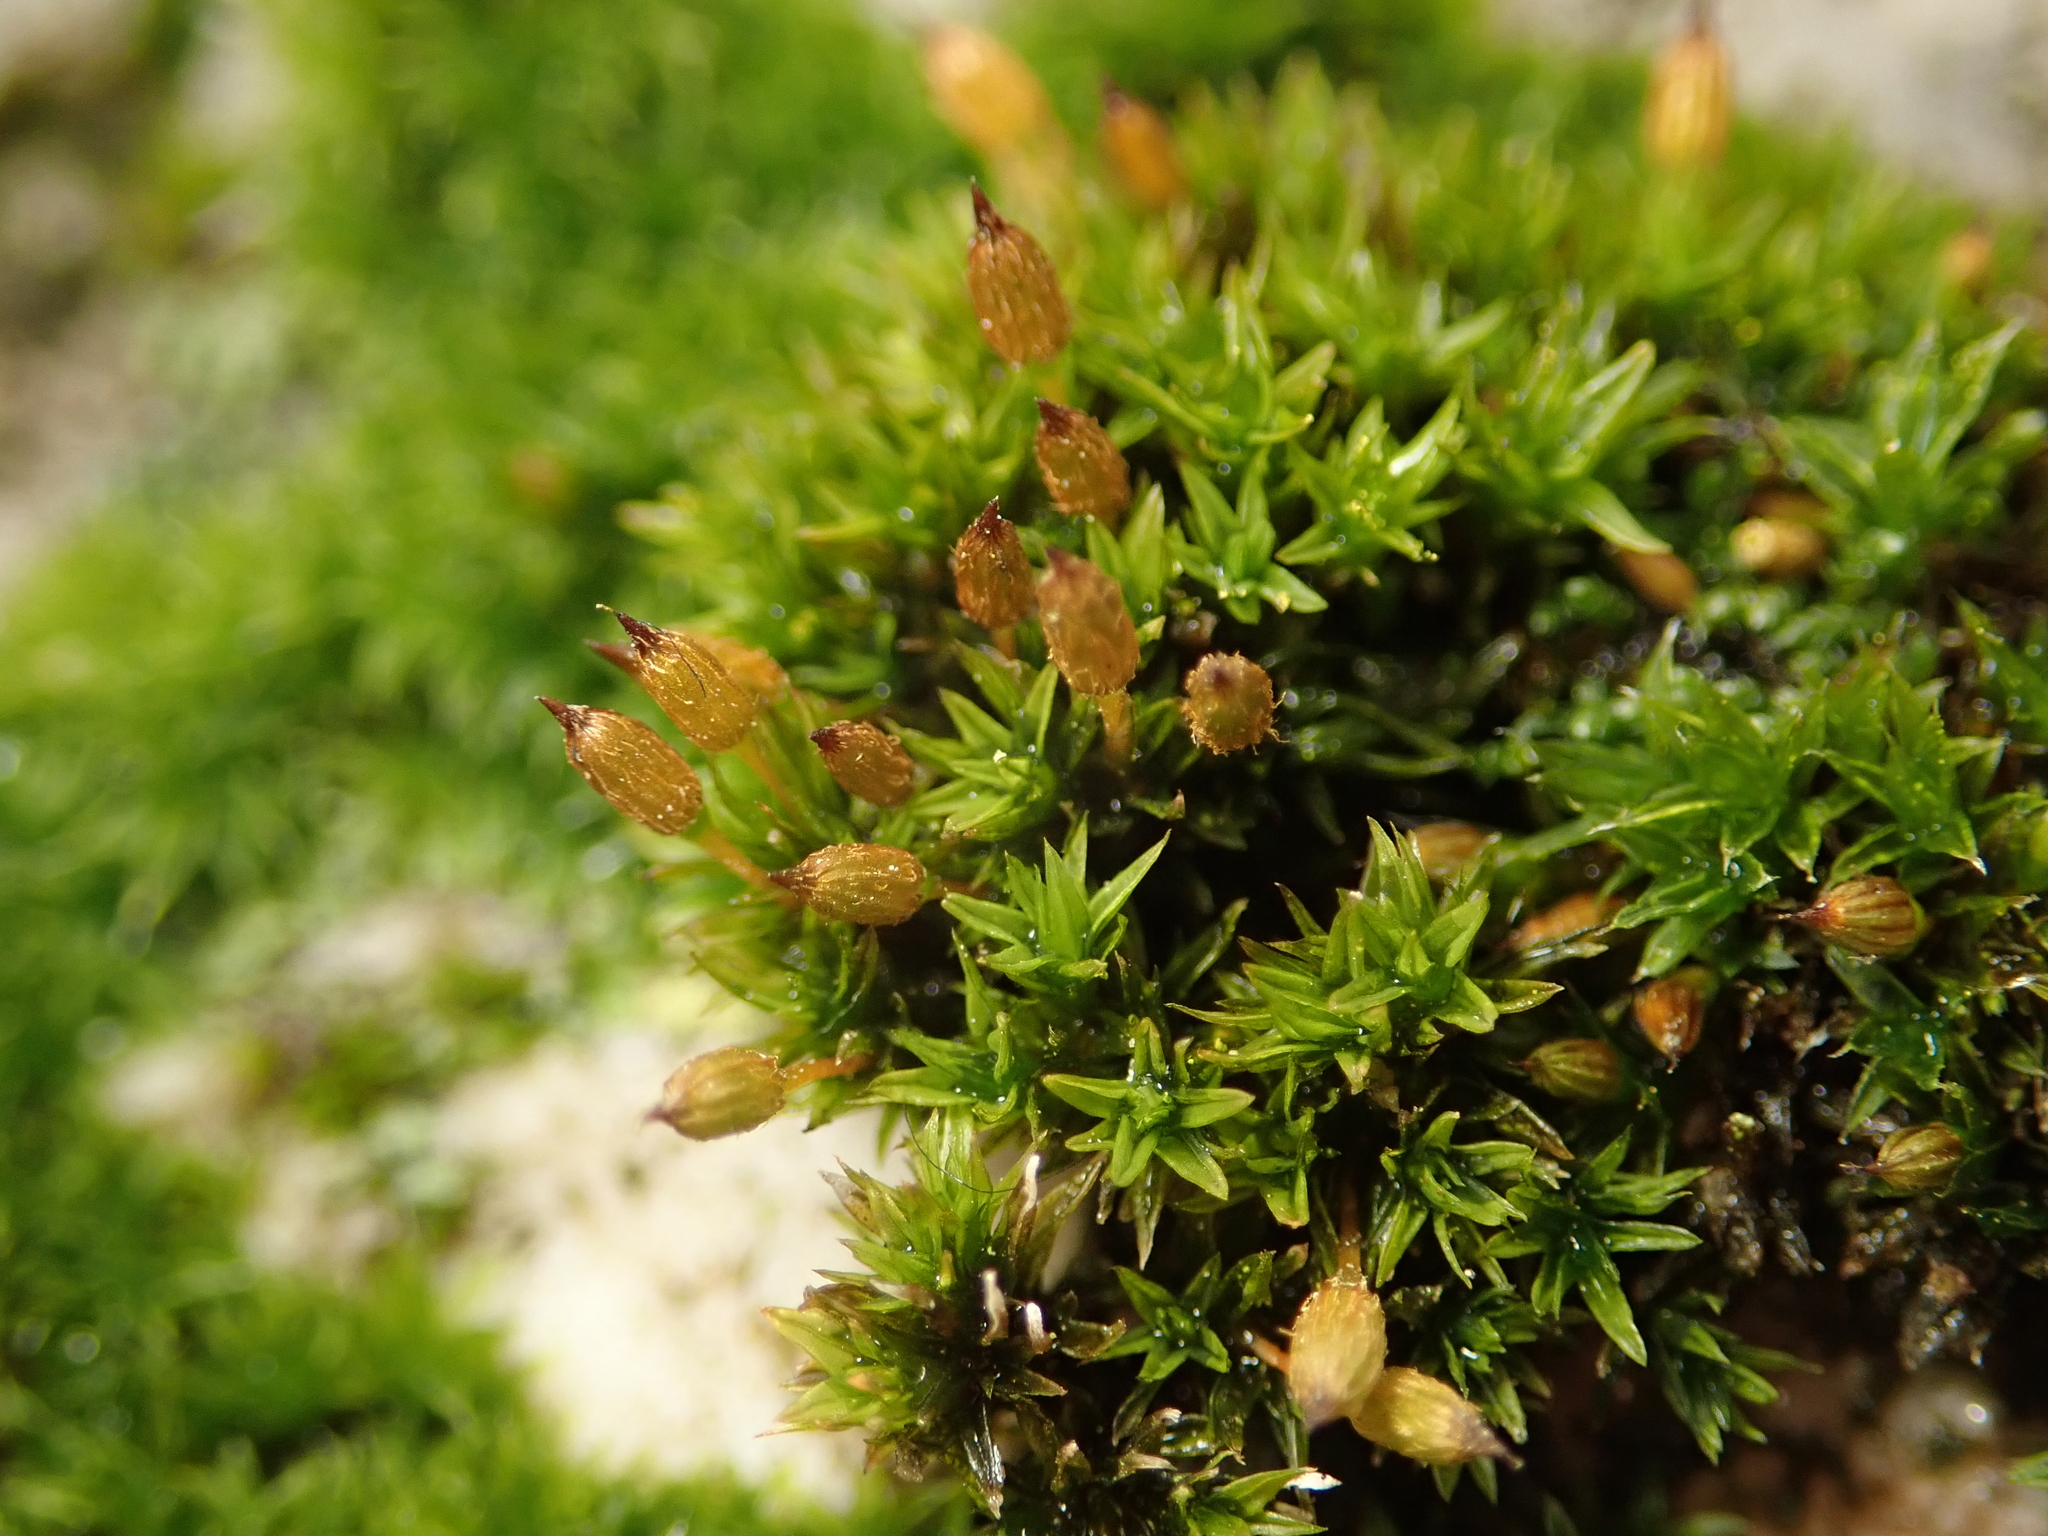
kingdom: Plantae
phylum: Bryophyta
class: Bryopsida
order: Orthotrichales
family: Orthotrichaceae
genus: Orthotrichum
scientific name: Orthotrichum anomalum
